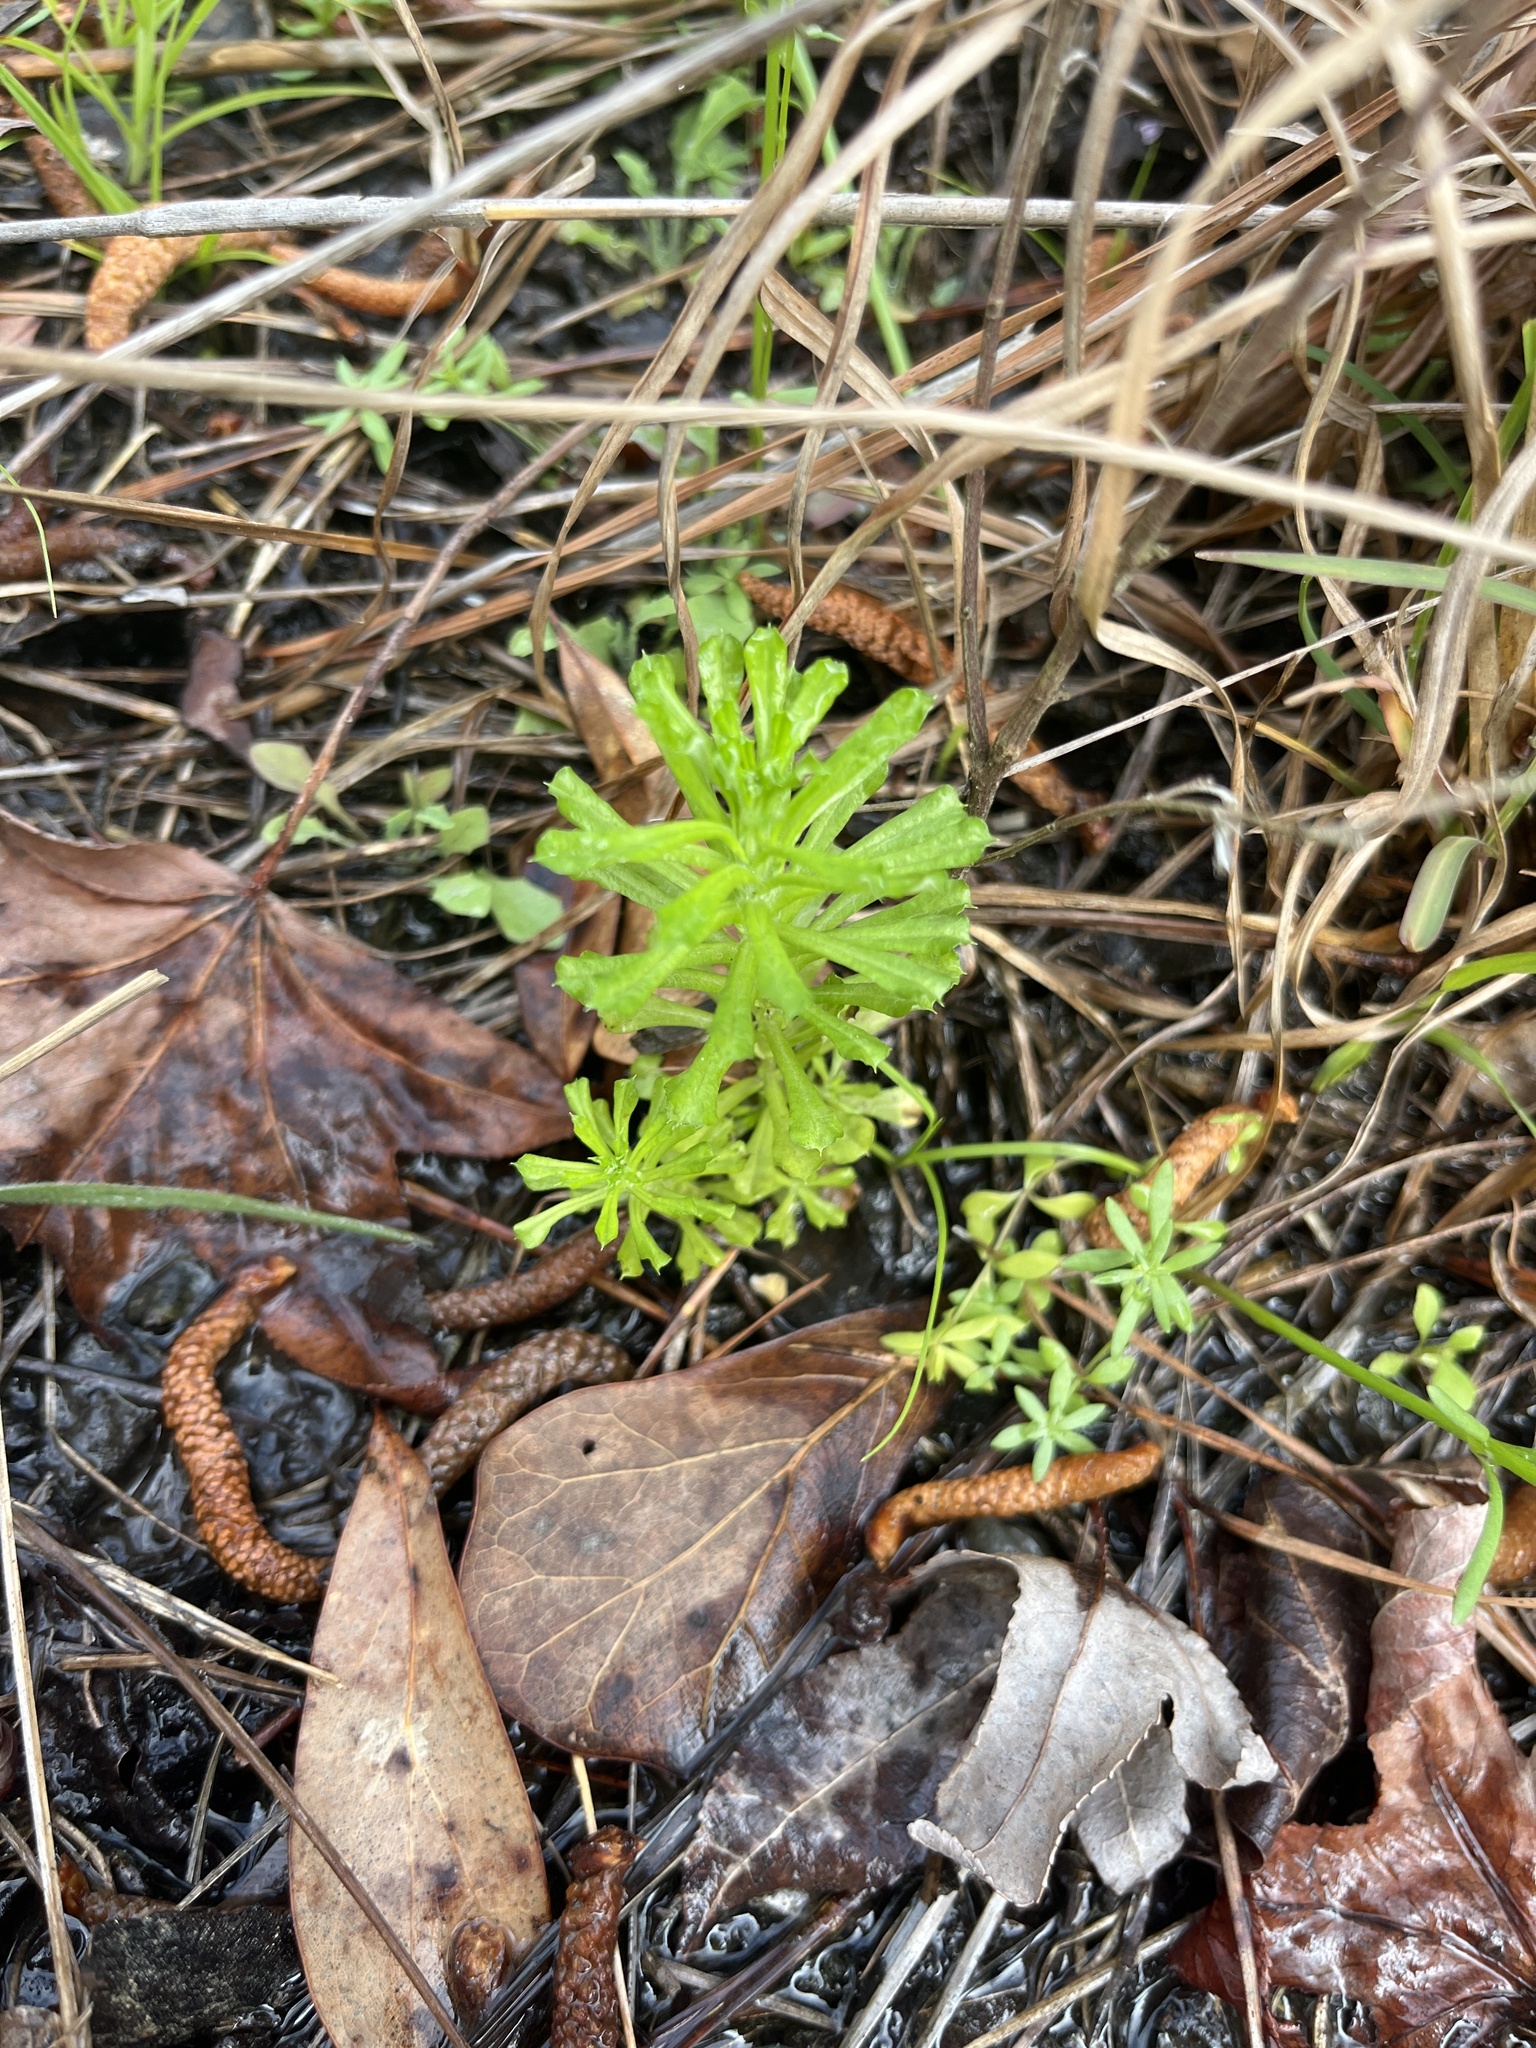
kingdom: Plantae
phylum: Tracheophyta
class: Magnoliopsida
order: Asterales
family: Asteraceae
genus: Facelis
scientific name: Facelis retusa
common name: Annual trampweed
